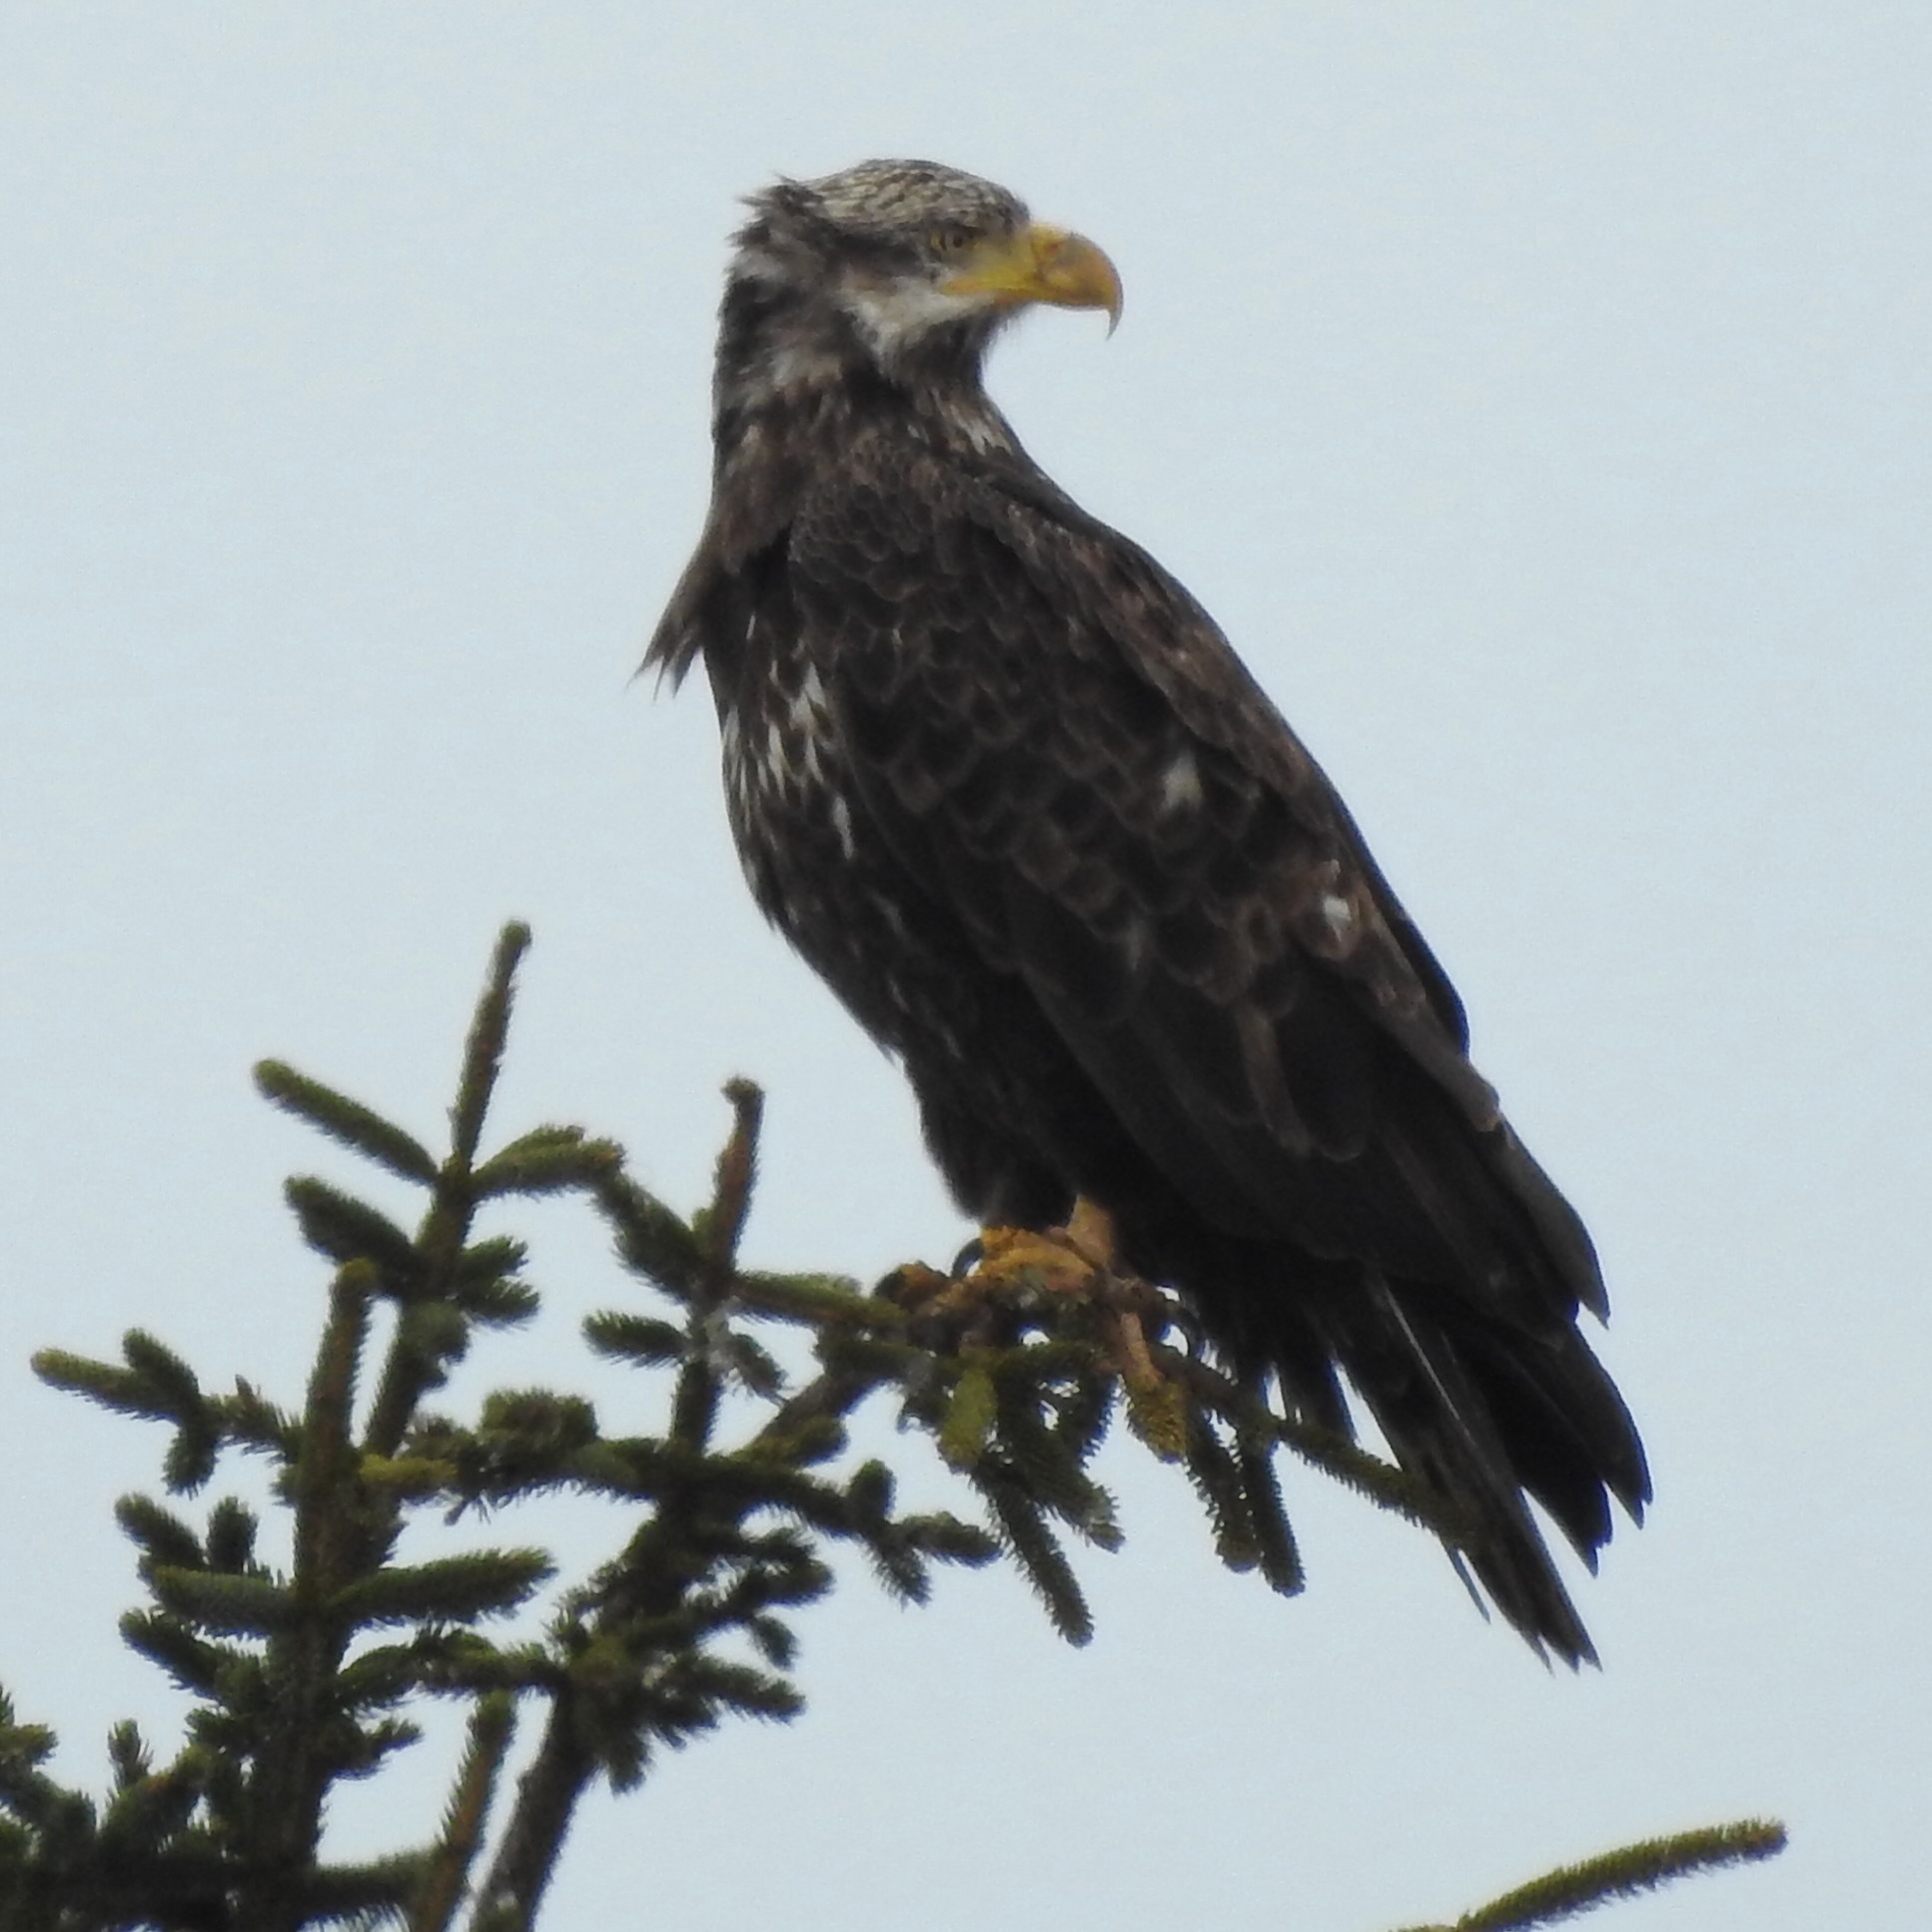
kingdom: Animalia
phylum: Chordata
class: Aves
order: Accipitriformes
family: Accipitridae
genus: Haliaeetus
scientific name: Haliaeetus leucocephalus
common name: Bald eagle
